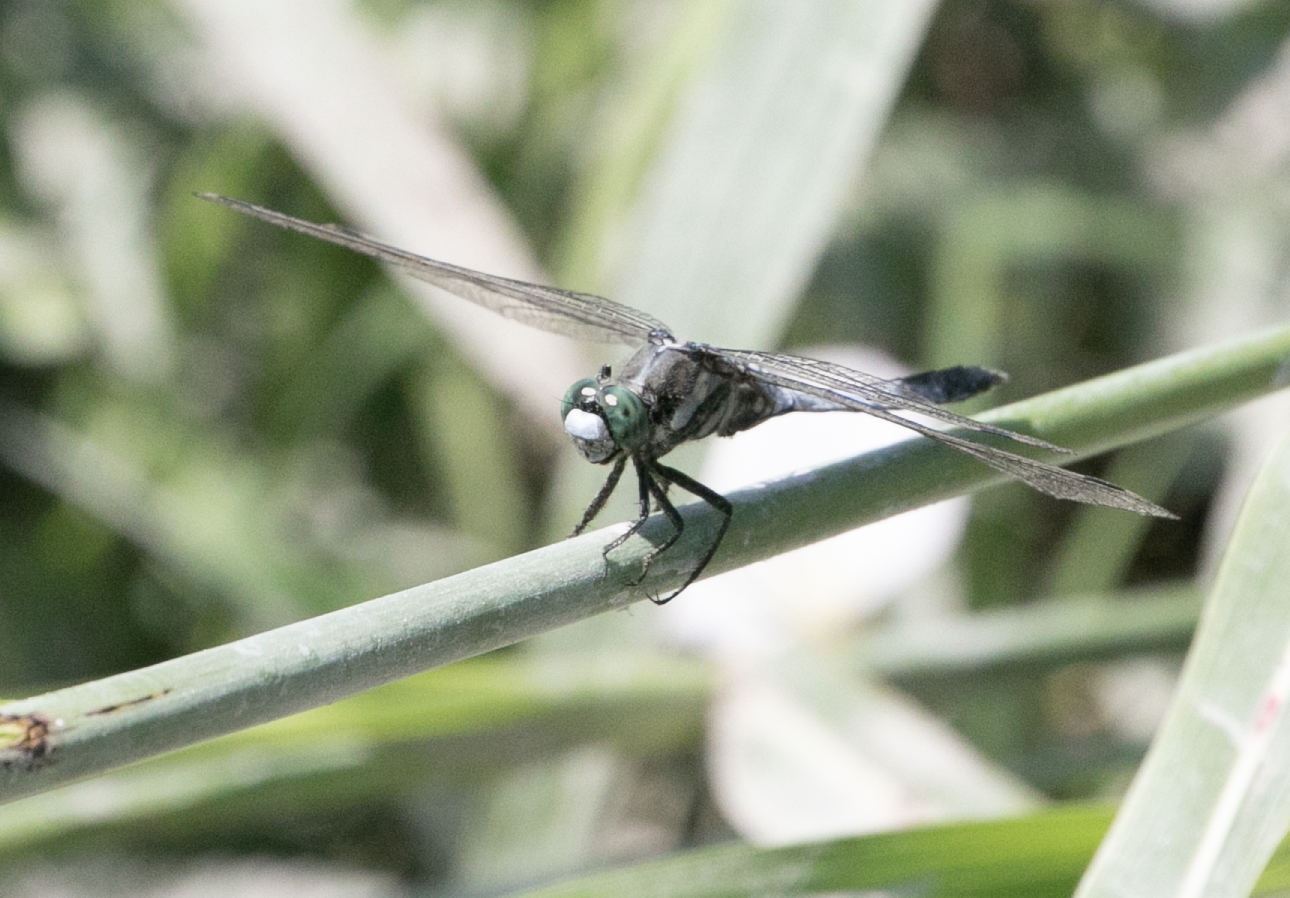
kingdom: Animalia
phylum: Arthropoda
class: Insecta
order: Odonata
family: Libellulidae
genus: Orthetrum
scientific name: Orthetrum albistylum
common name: White-tailed skimmer
